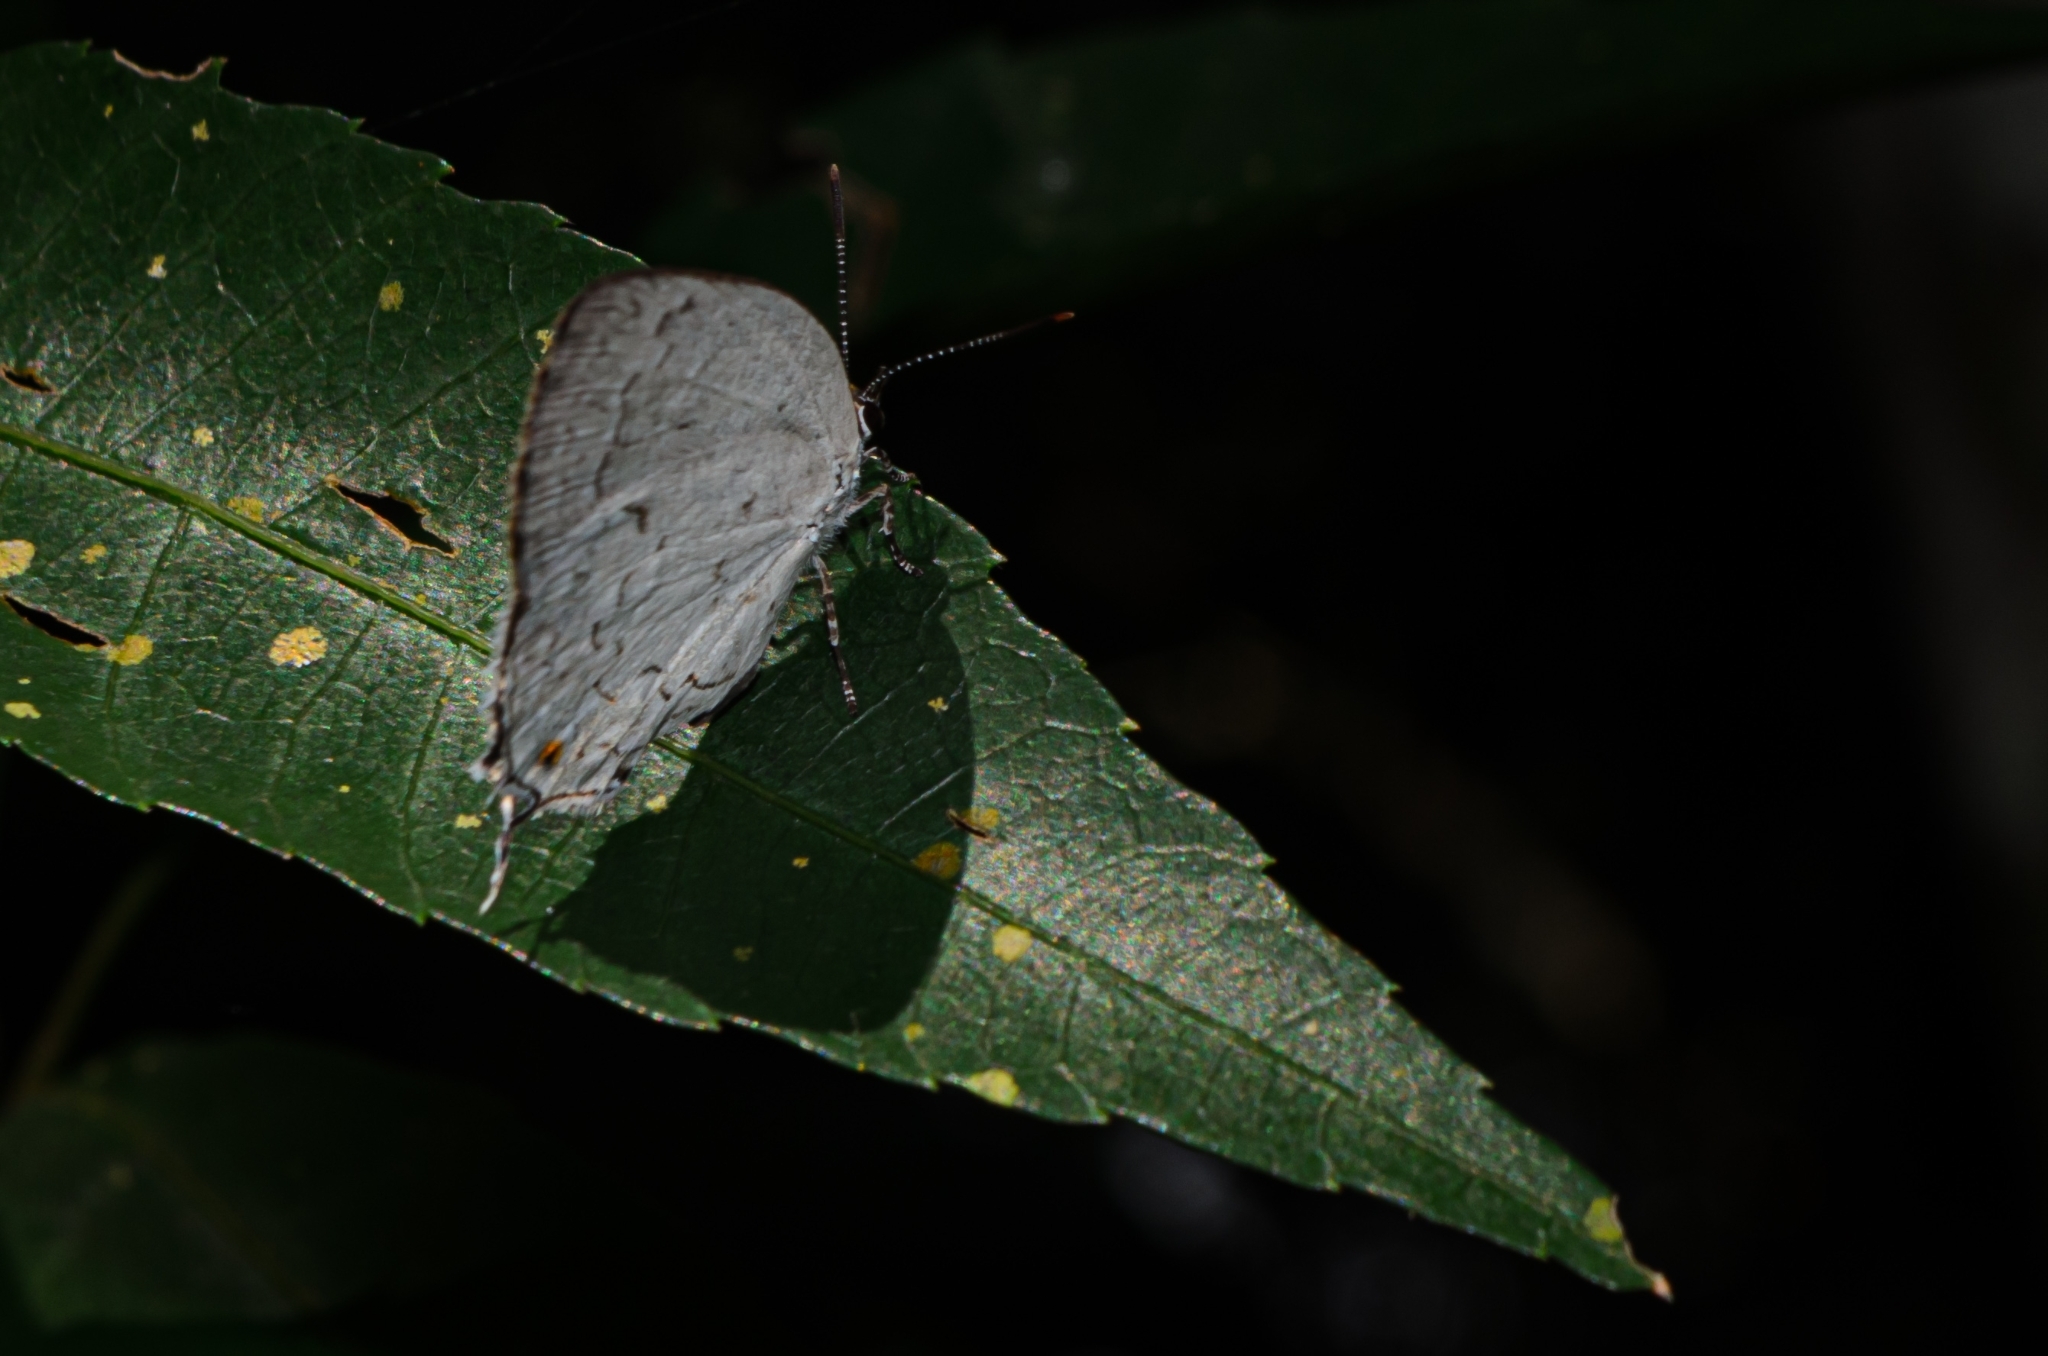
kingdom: Animalia
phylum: Arthropoda
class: Insecta
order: Lepidoptera
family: Lycaenidae
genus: Ostrinotes
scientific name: Ostrinotes
